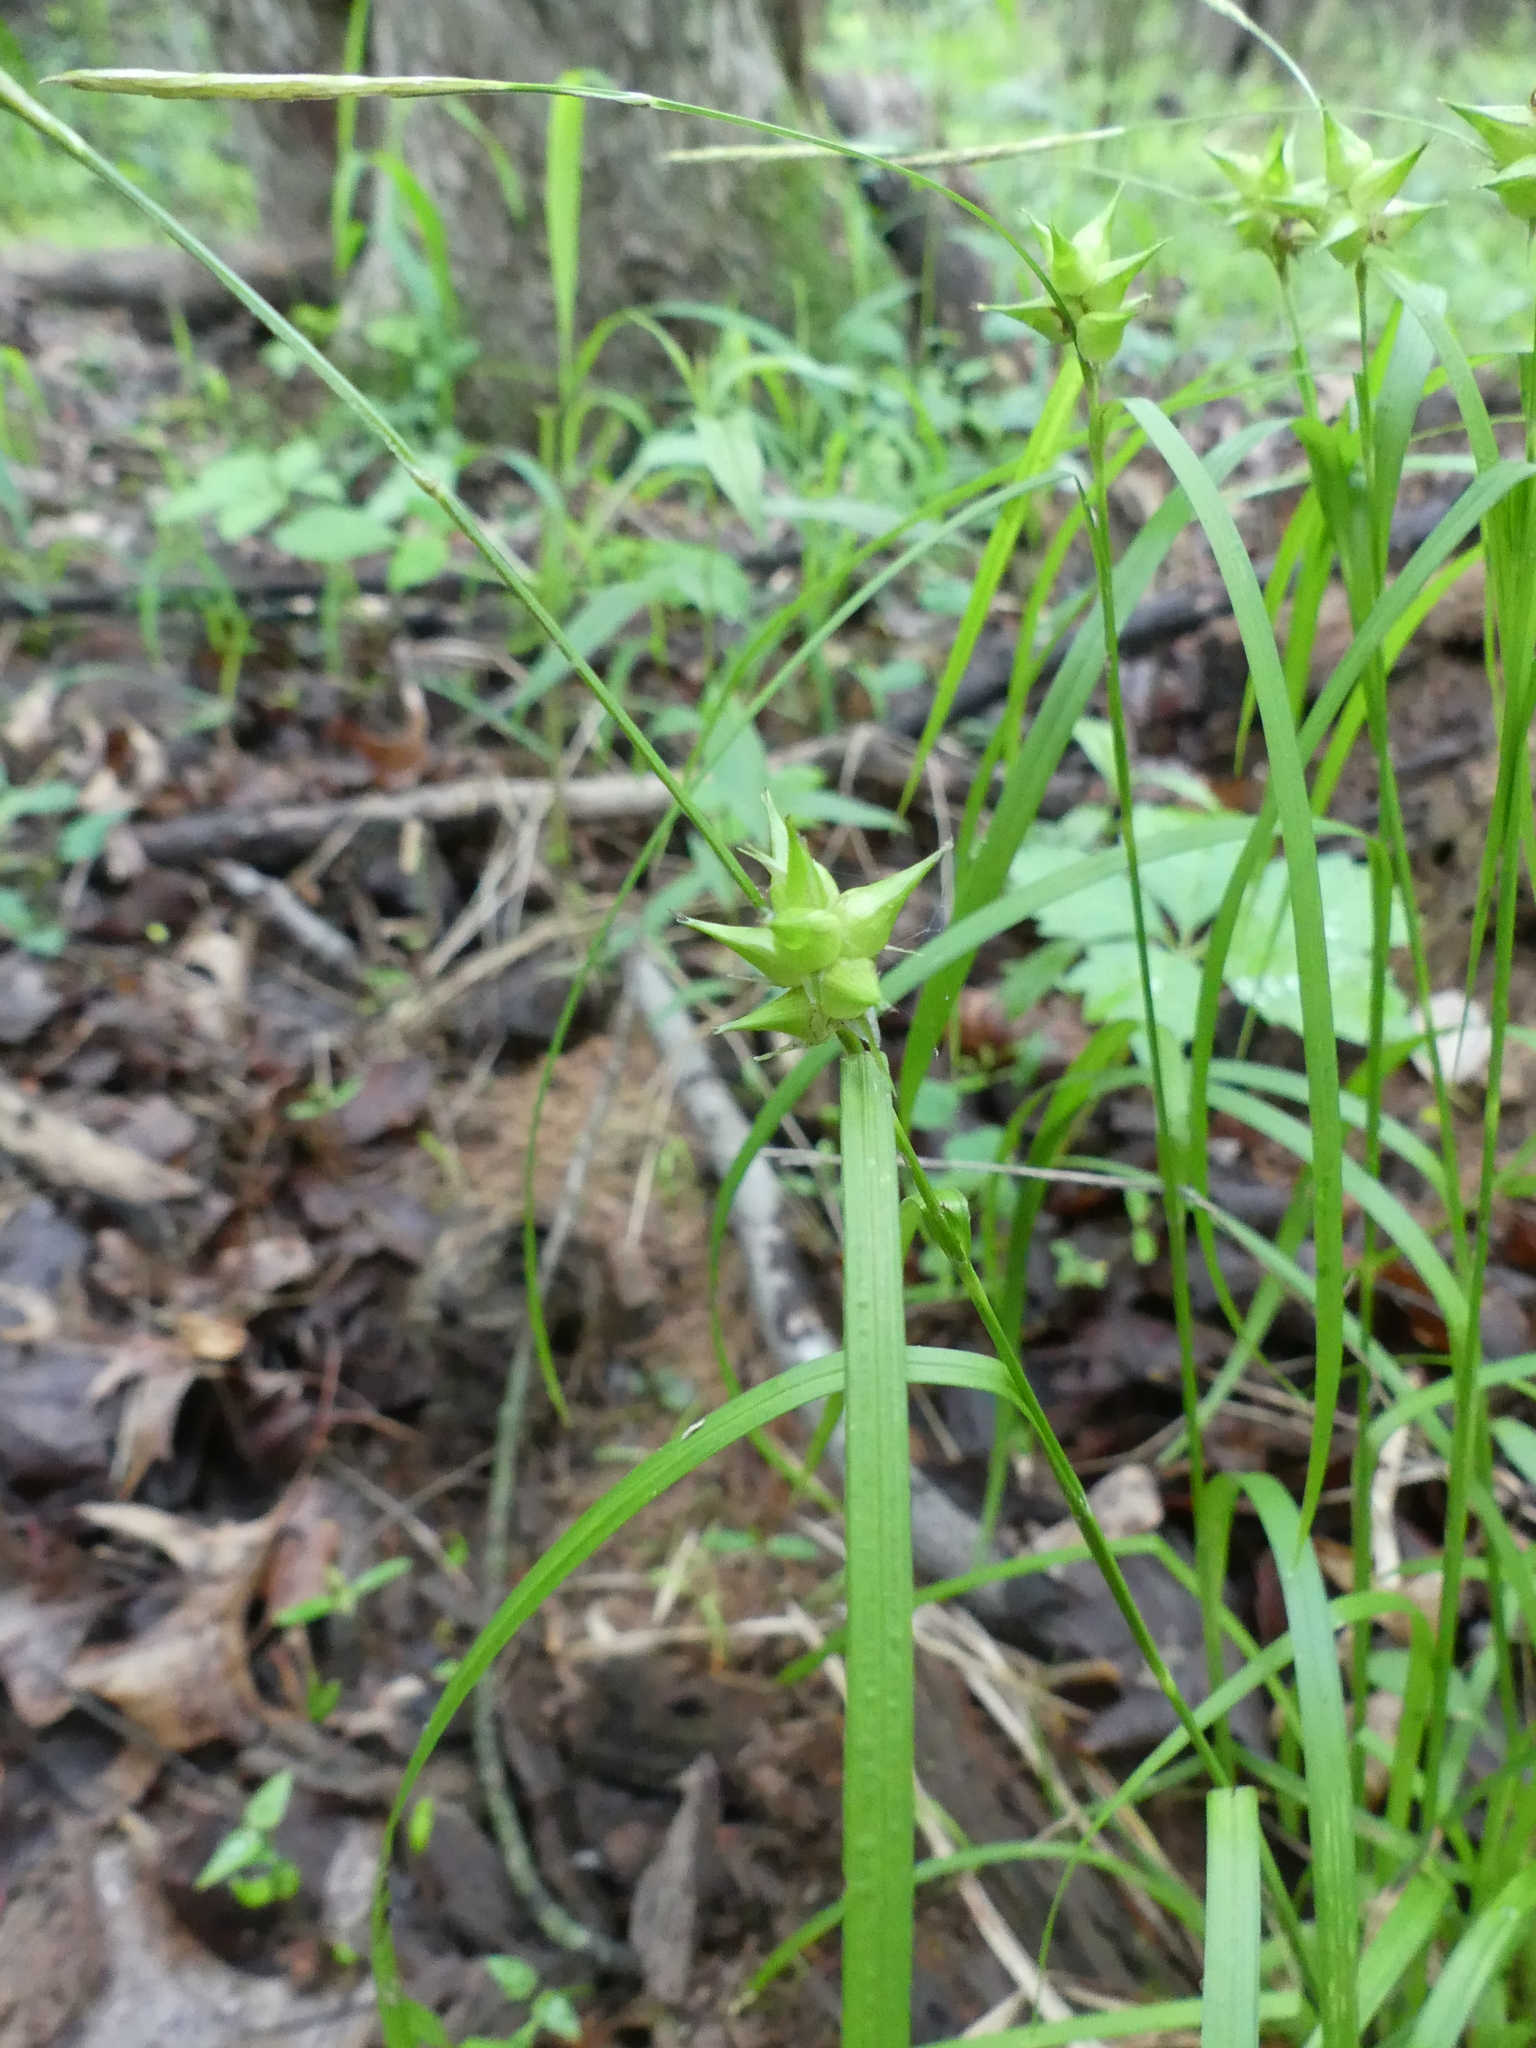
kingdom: Plantae
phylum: Tracheophyta
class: Liliopsida
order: Poales
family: Cyperaceae
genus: Carex
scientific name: Carex intumescens
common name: Greater bladder sedge
